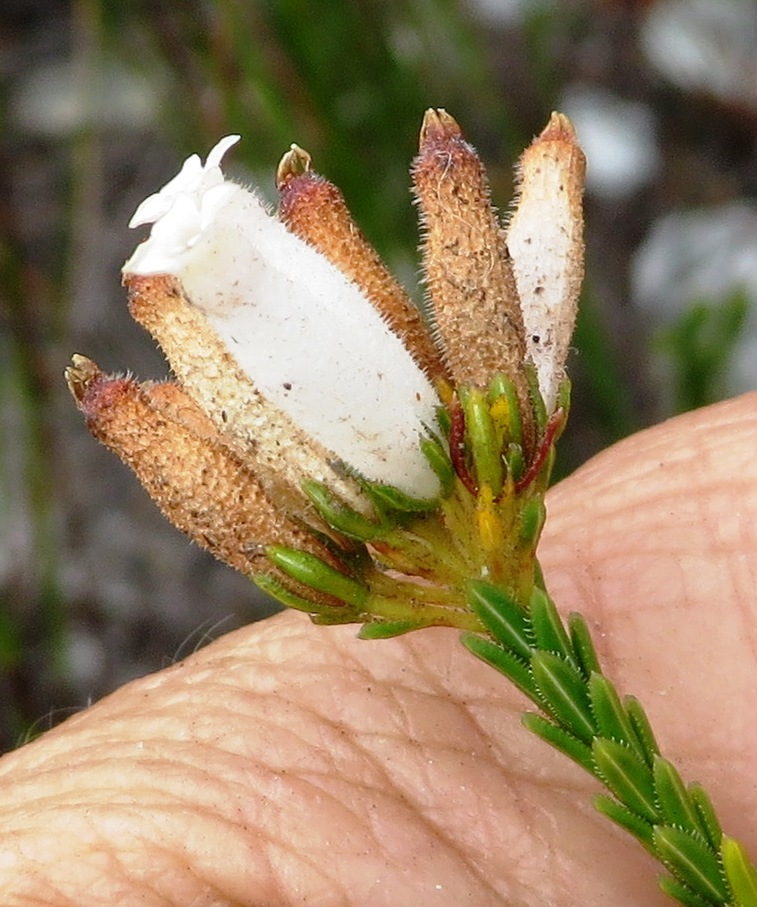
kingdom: Plantae
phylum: Tracheophyta
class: Magnoliopsida
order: Ericales
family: Ericaceae
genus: Erica
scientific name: Erica cristata
